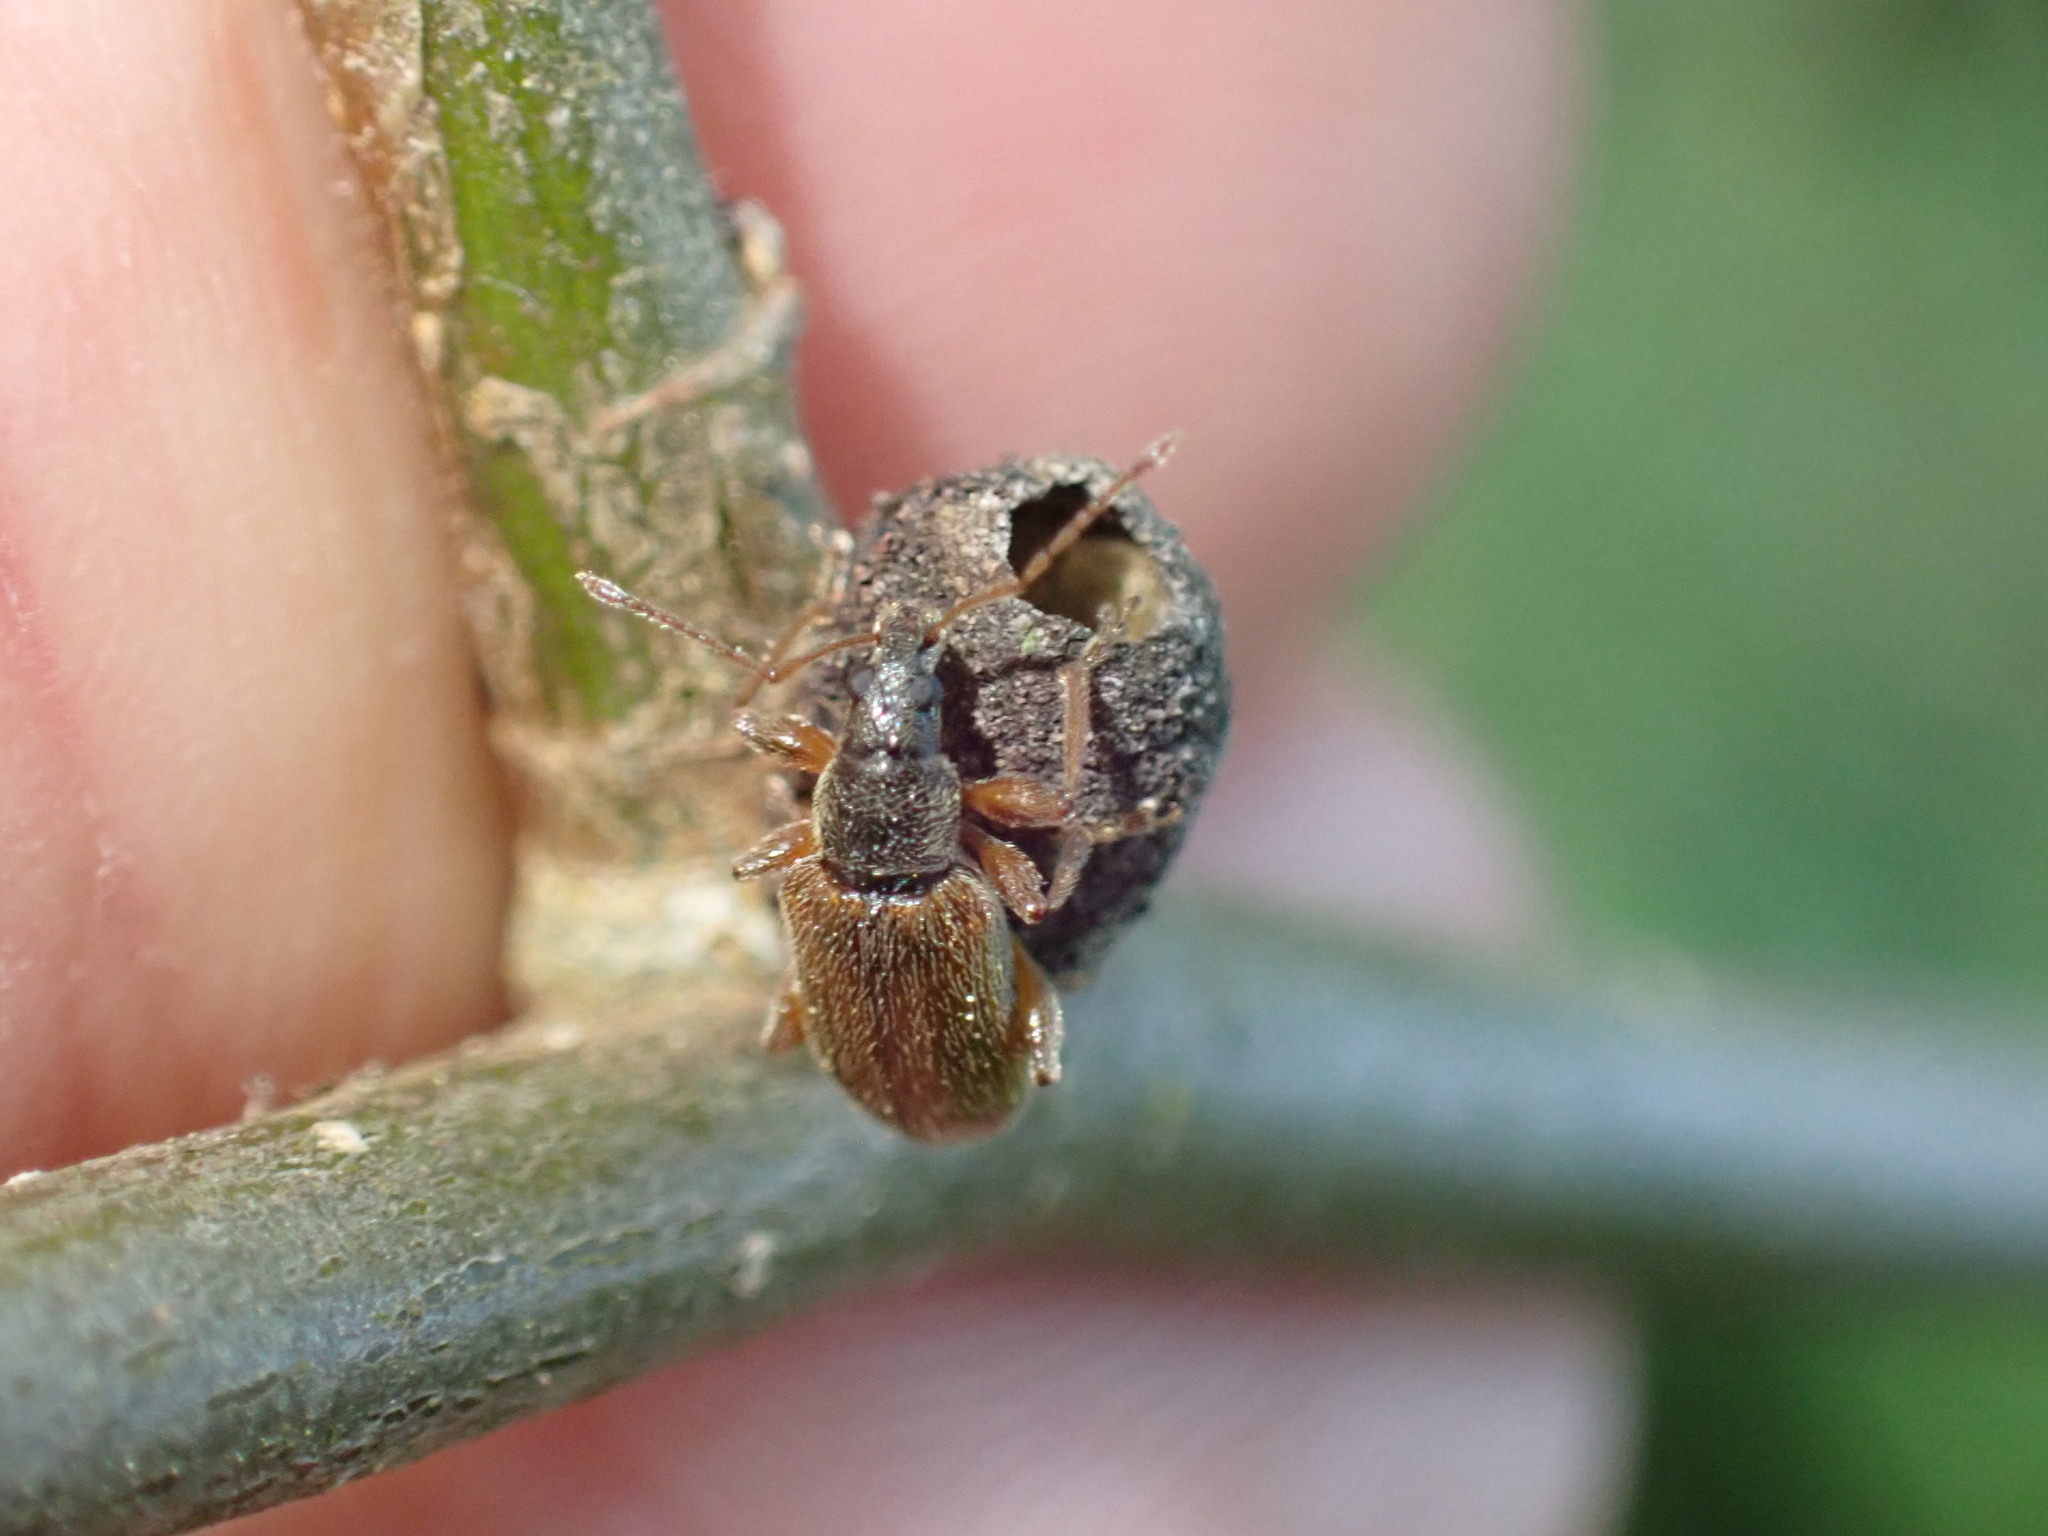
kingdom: Animalia
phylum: Arthropoda
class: Insecta
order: Coleoptera
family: Curculionidae
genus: Phyllobius
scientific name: Phyllobius oblongus
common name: Brown leaf weevil
